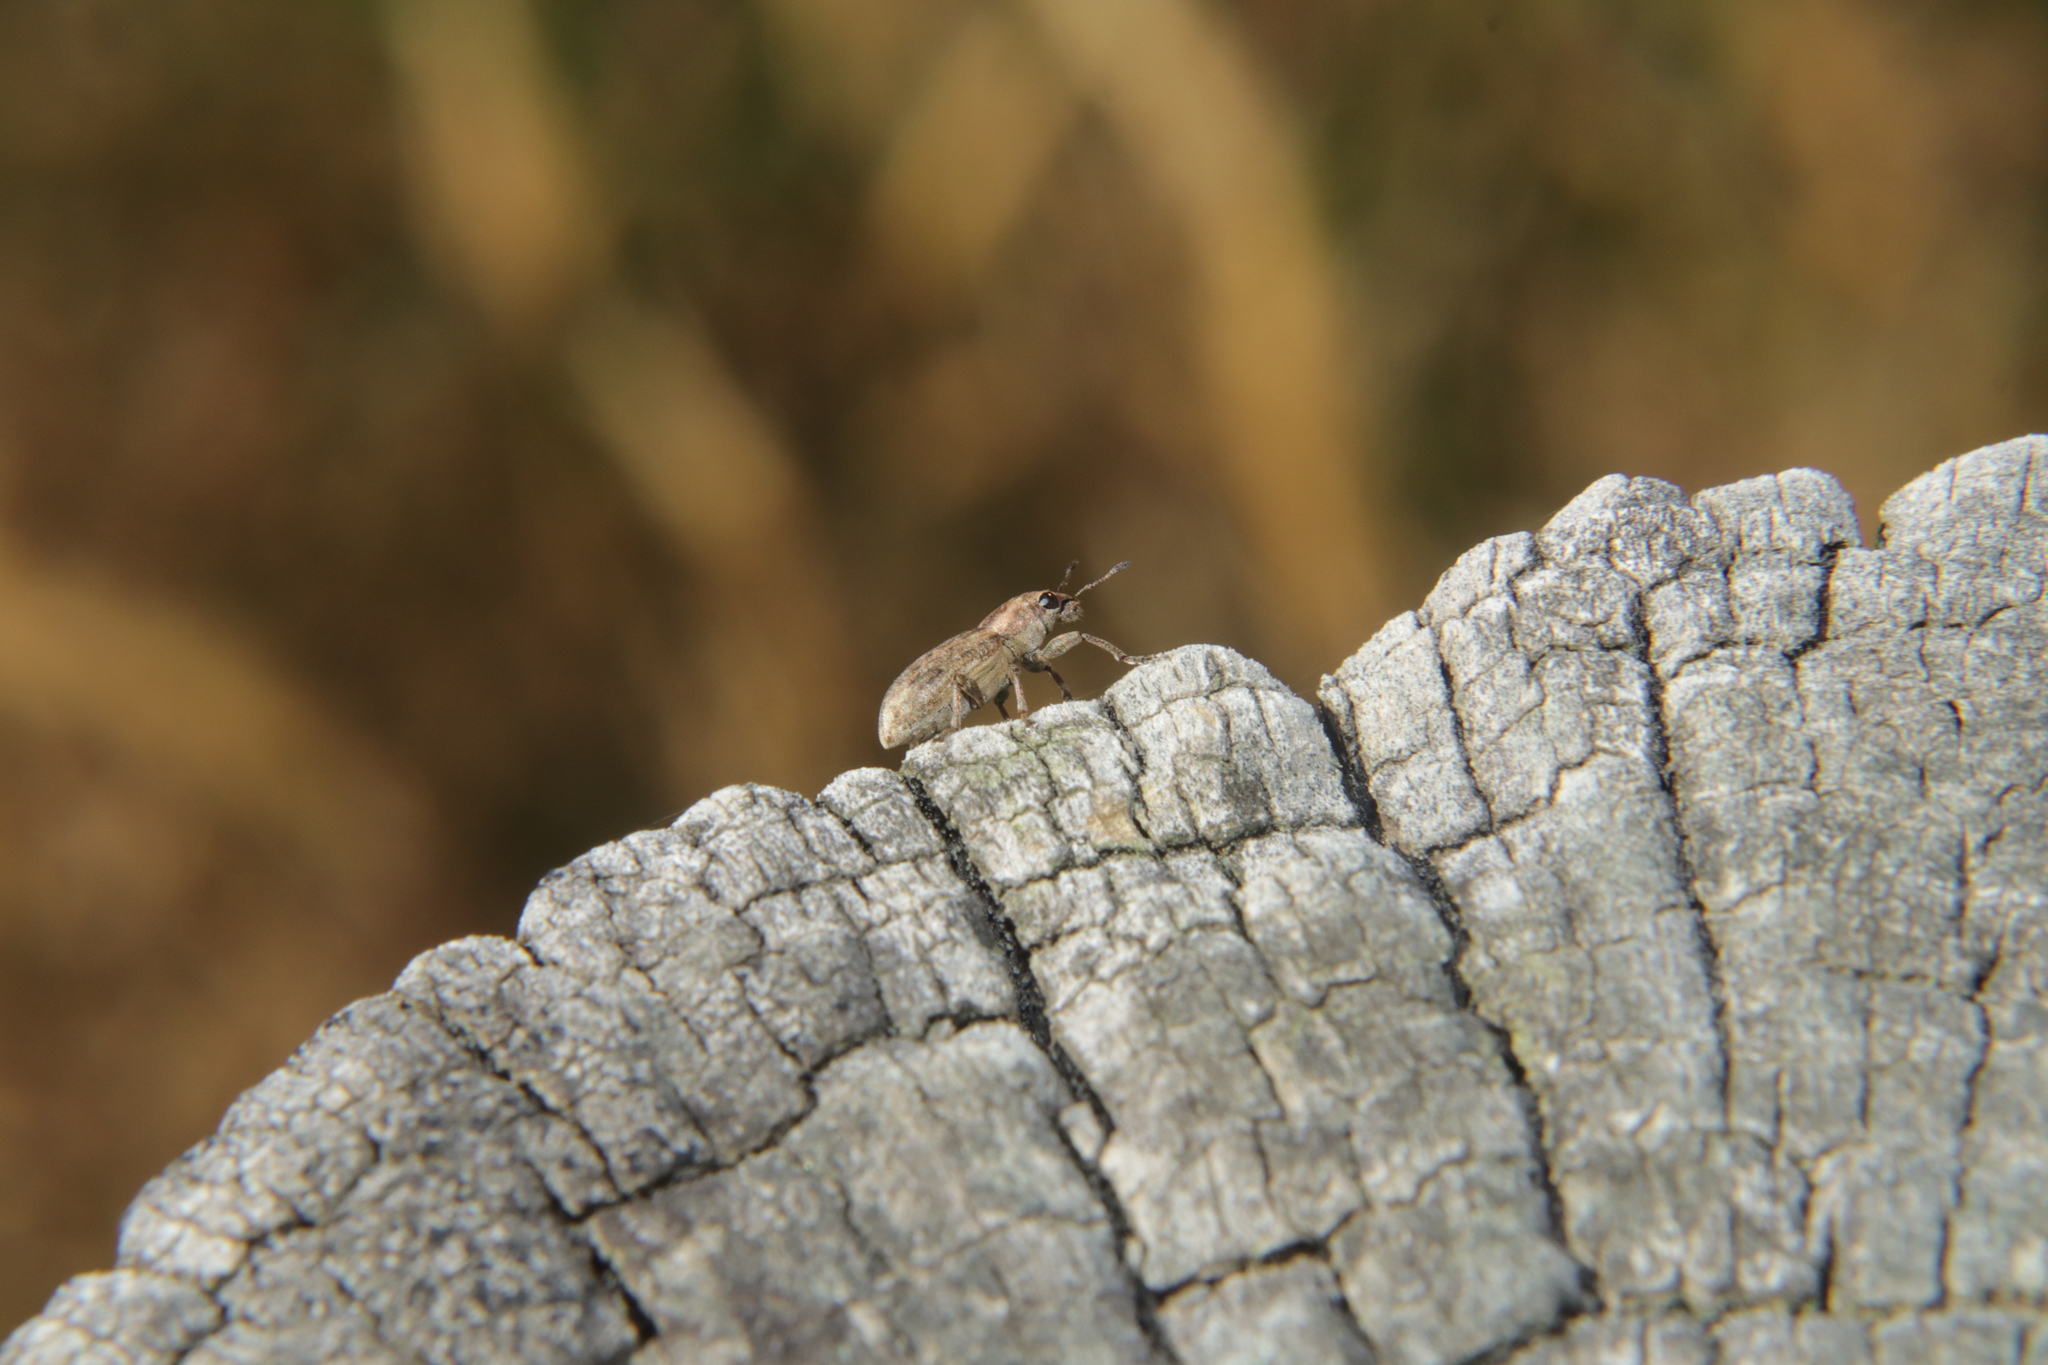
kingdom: Animalia
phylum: Arthropoda
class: Insecta
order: Coleoptera
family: Curculionidae
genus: Sitona
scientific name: Sitona obsoletus
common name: Weevil
